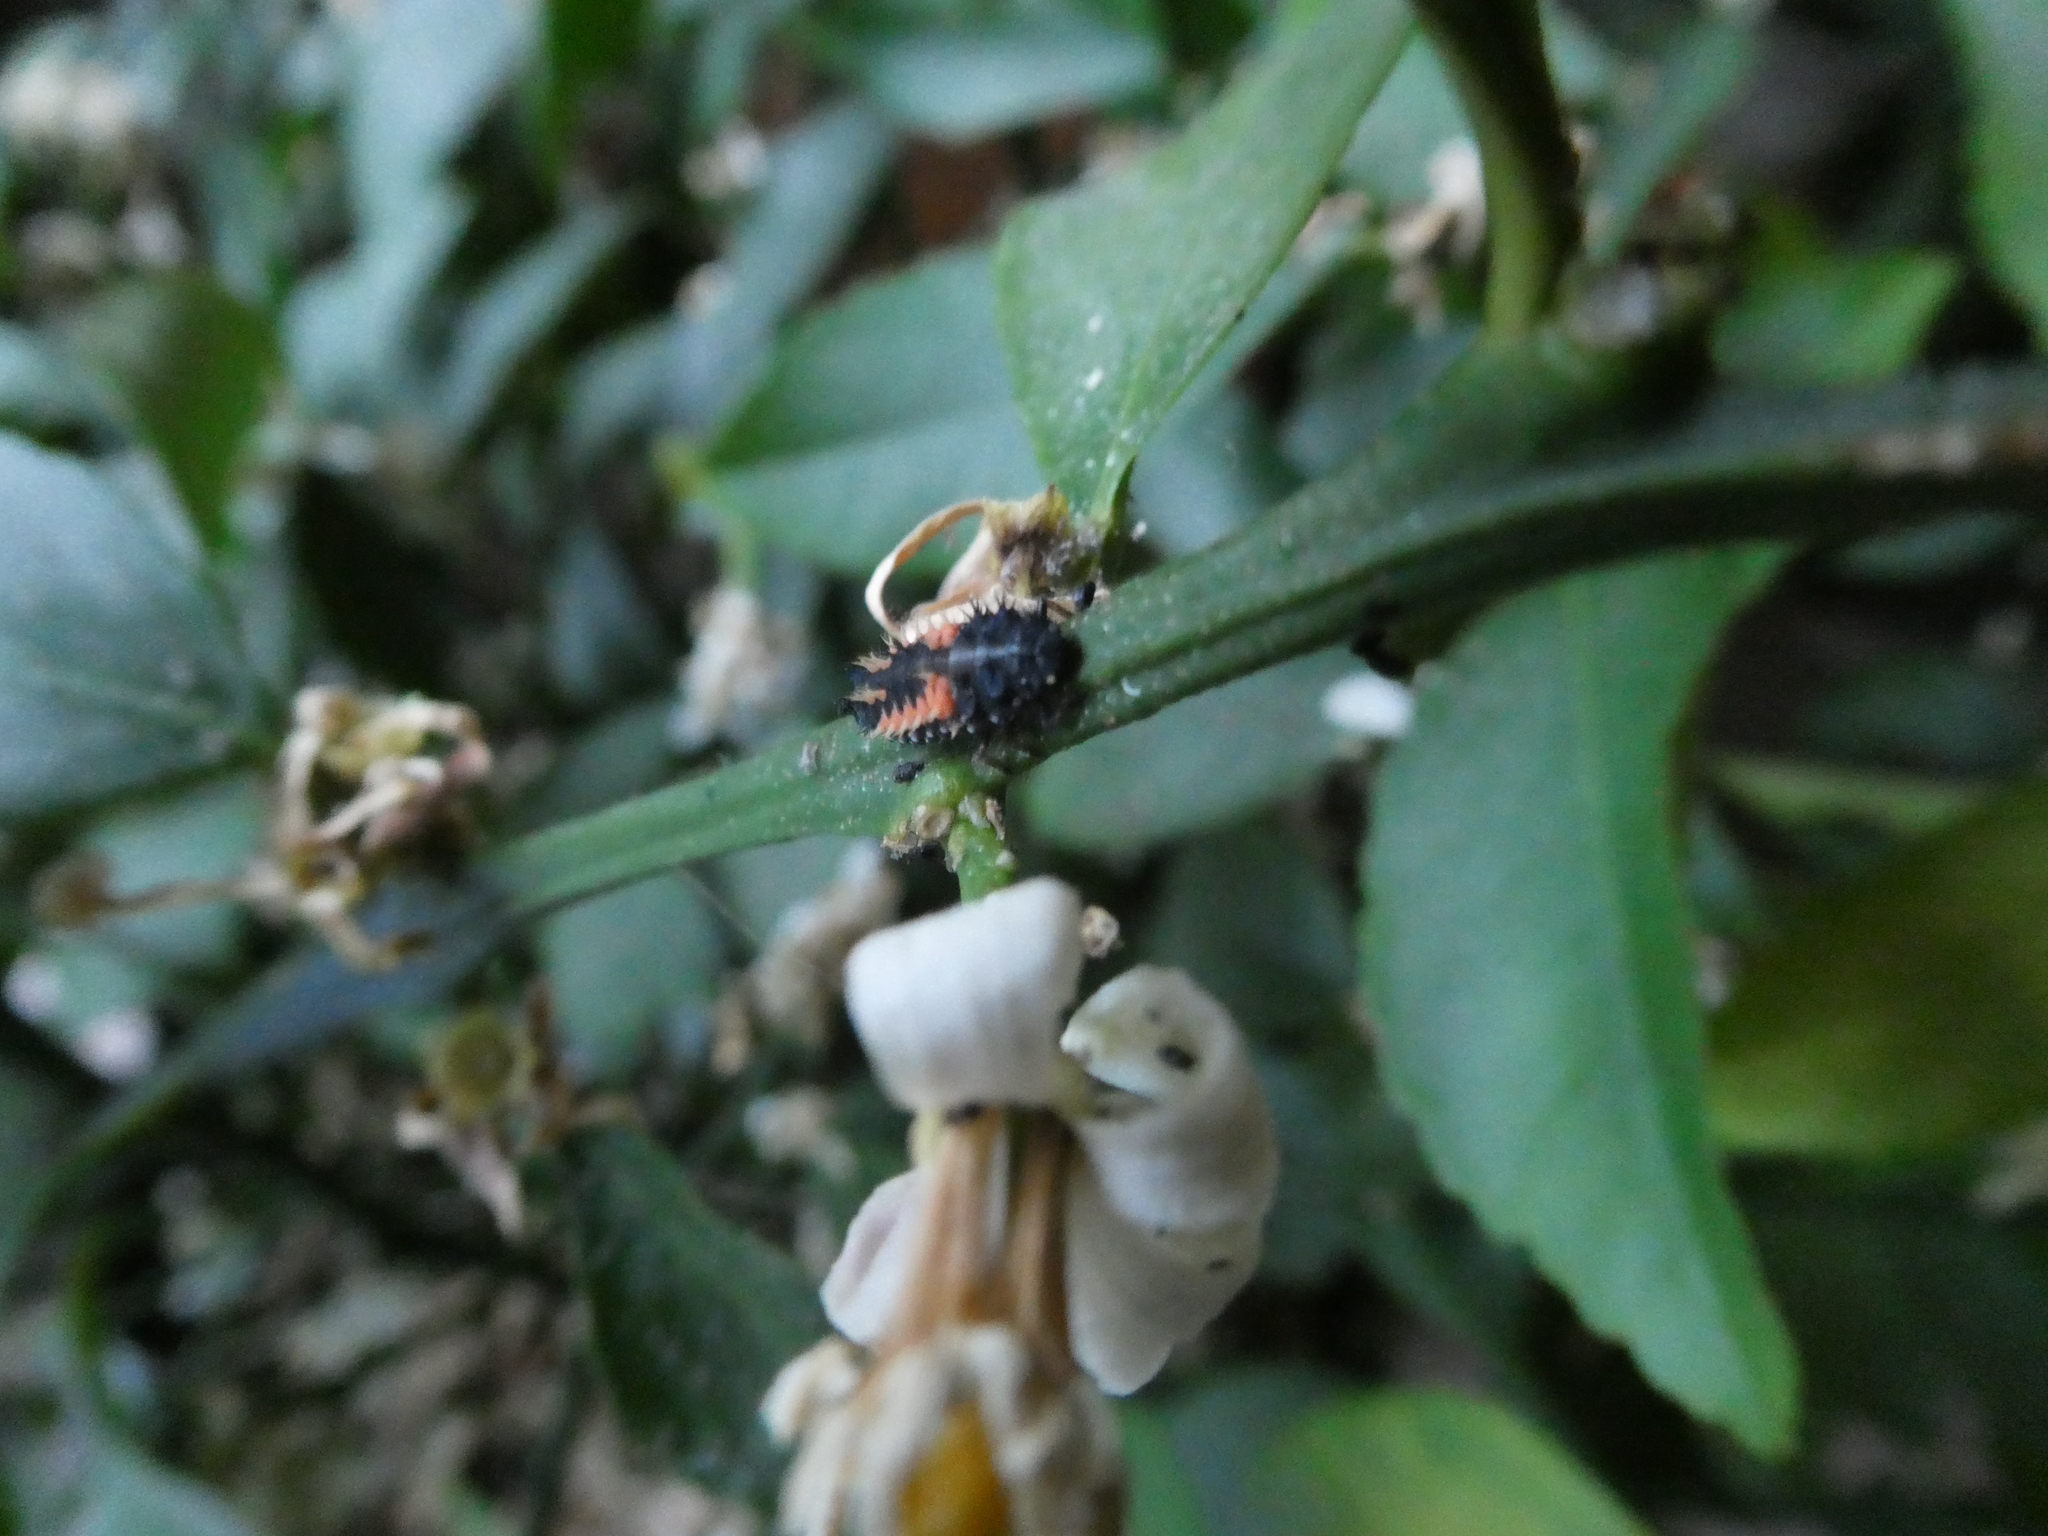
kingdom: Animalia
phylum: Arthropoda
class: Insecta
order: Coleoptera
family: Coccinellidae
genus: Harmonia
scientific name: Harmonia axyridis
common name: Harlequin ladybird
